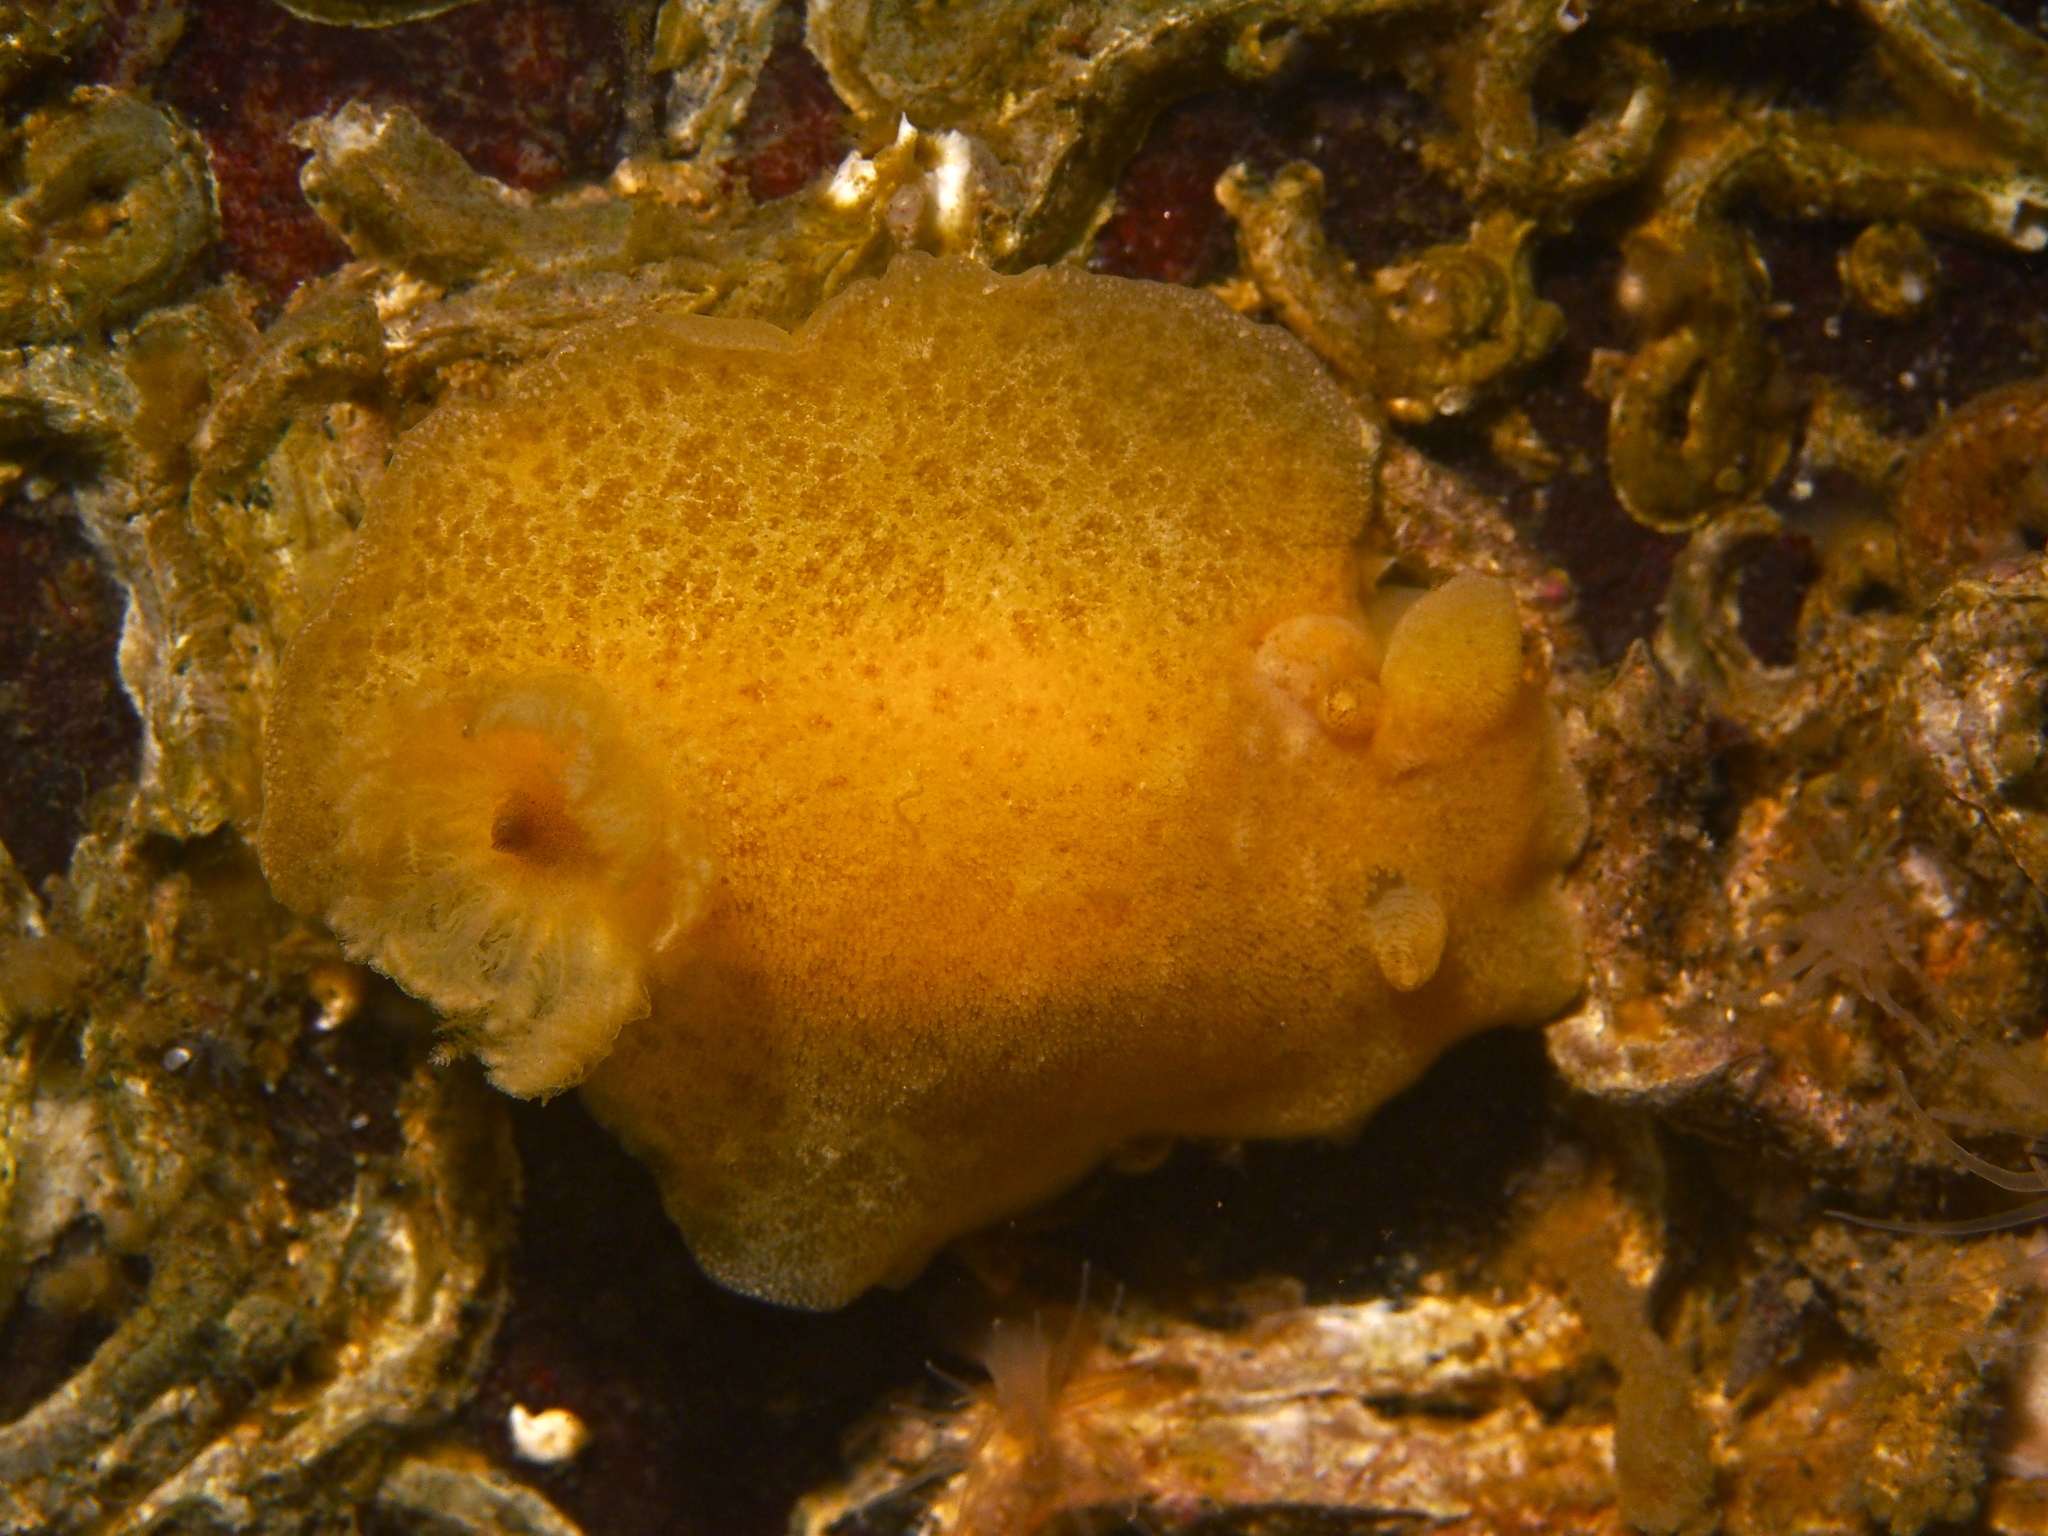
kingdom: Animalia
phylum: Mollusca
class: Gastropoda
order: Nudibranchia
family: Discodorididae
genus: Jorunna
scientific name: Jorunna tomentosa
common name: Grey sea slug
